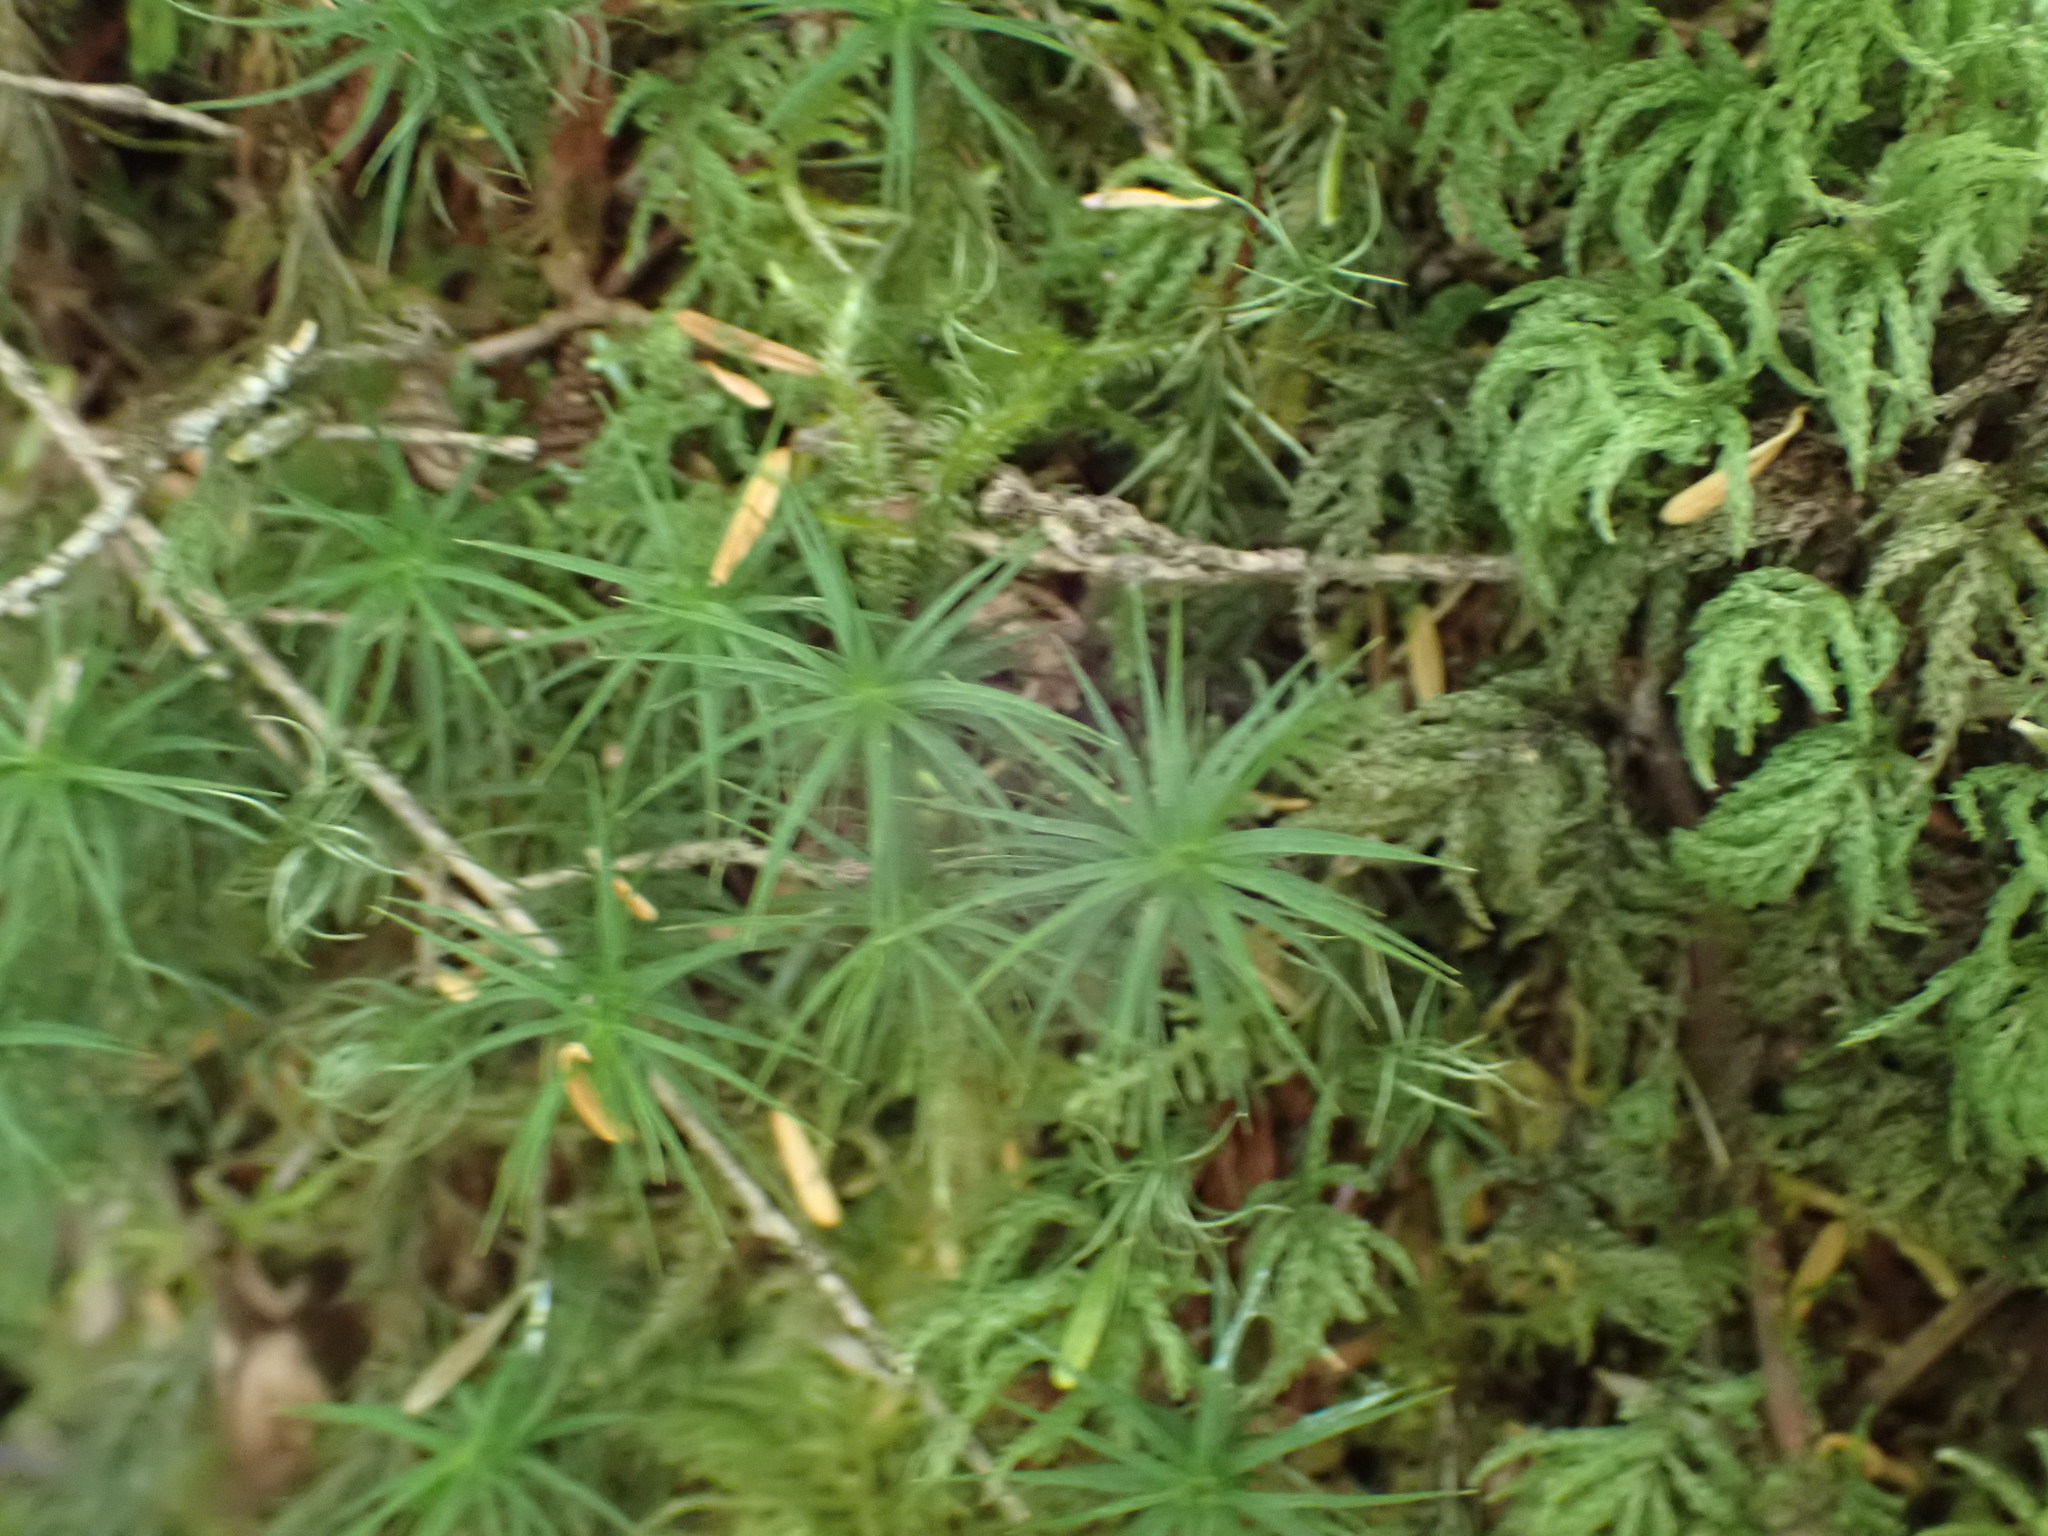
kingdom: Plantae
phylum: Bryophyta
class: Polytrichopsida
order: Polytrichales
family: Polytrichaceae
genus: Polytrichastrum
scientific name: Polytrichastrum alpinum
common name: Alpine haircap
